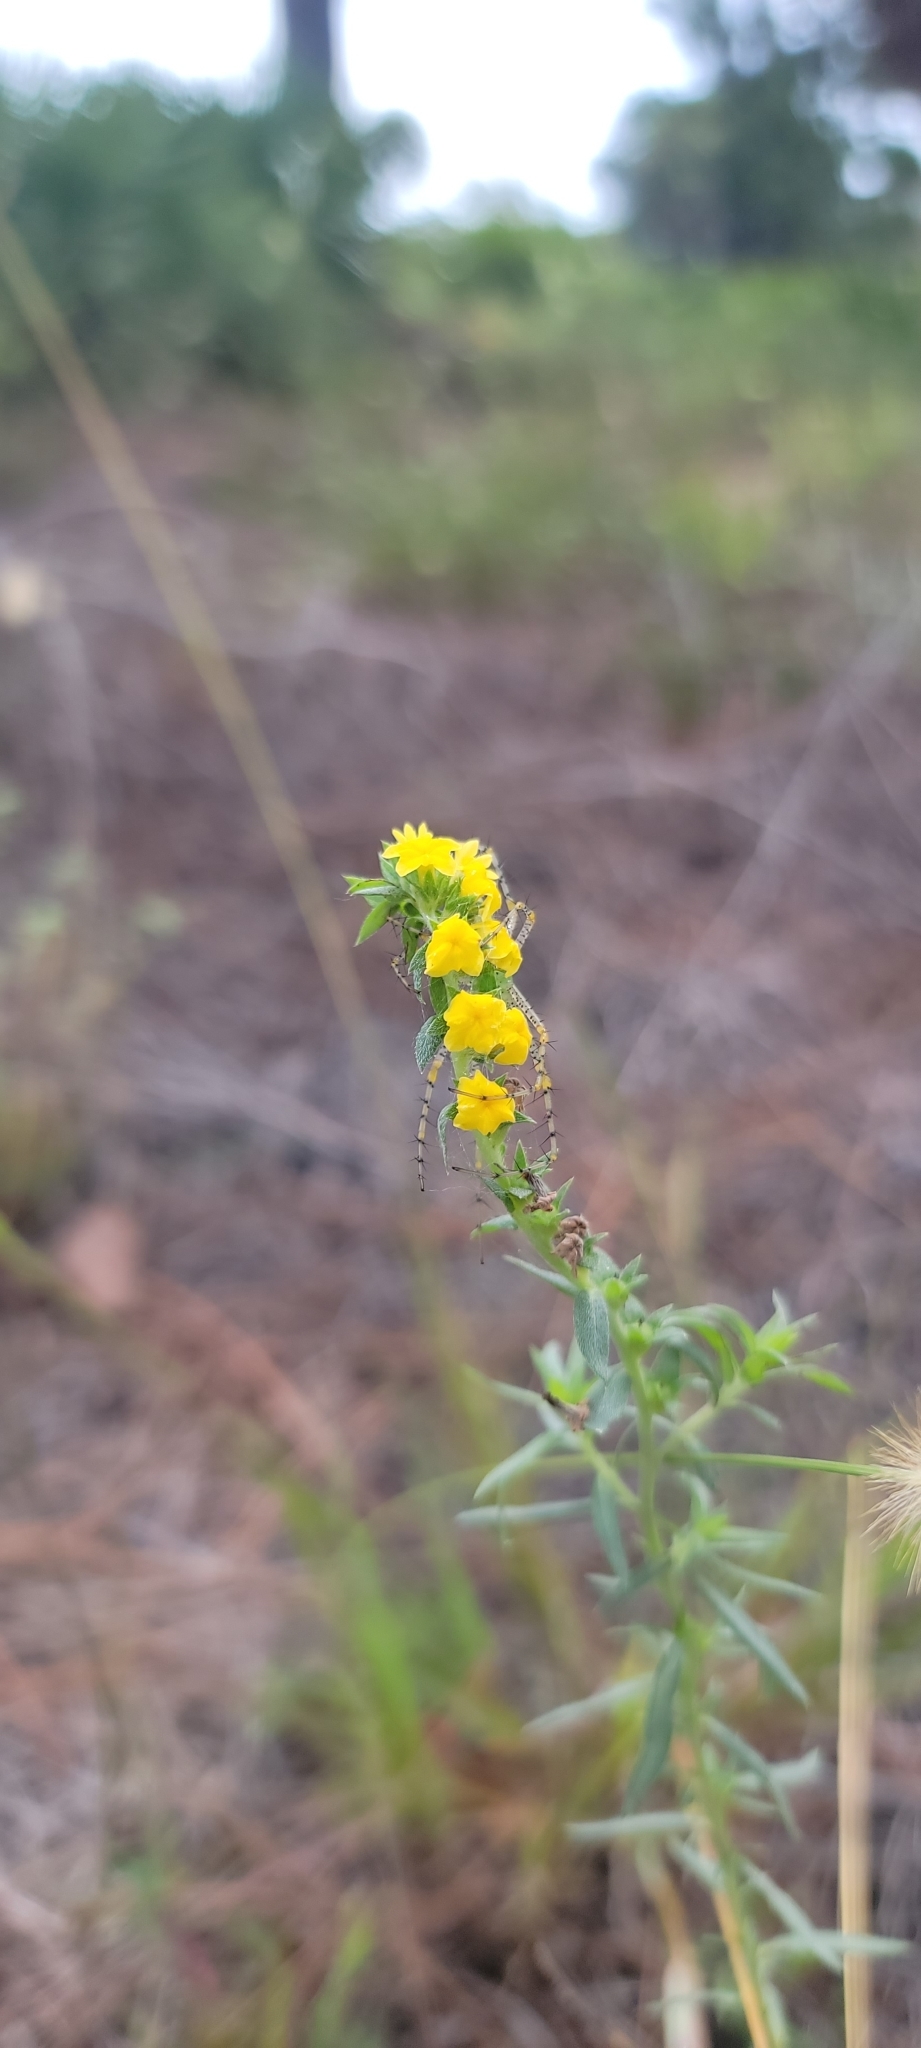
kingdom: Plantae
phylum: Tracheophyta
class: Magnoliopsida
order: Boraginales
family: Heliotropiaceae
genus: Euploca
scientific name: Euploca polyphylla
